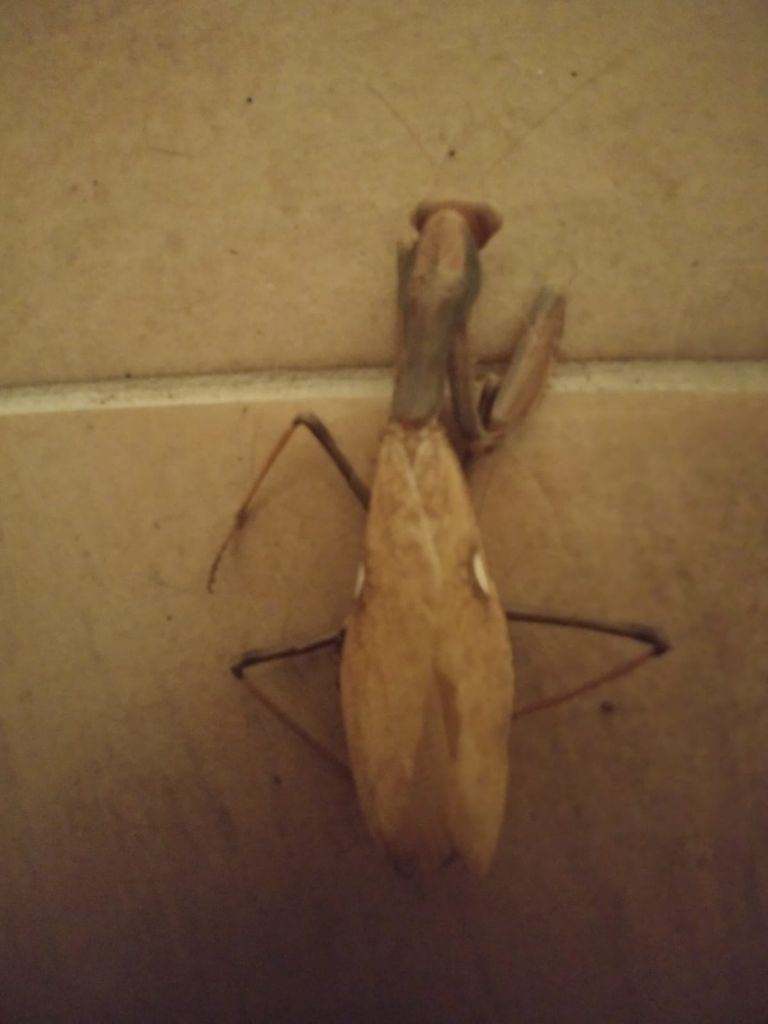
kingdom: Animalia
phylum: Arthropoda
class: Insecta
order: Mantodea
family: Mantidae
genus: Sphodromantis
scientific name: Sphodromantis viridis
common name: Giant african mantis
